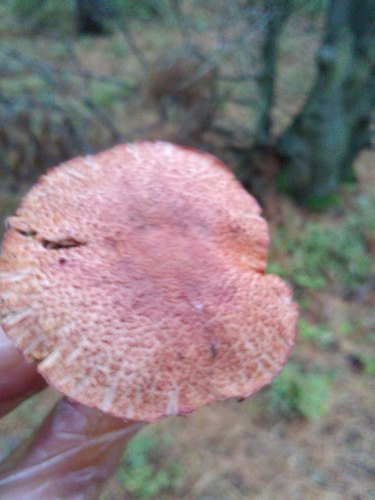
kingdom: Fungi
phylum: Basidiomycota
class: Agaricomycetes
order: Boletales
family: Gomphidiaceae
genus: Chroogomphus
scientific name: Chroogomphus
